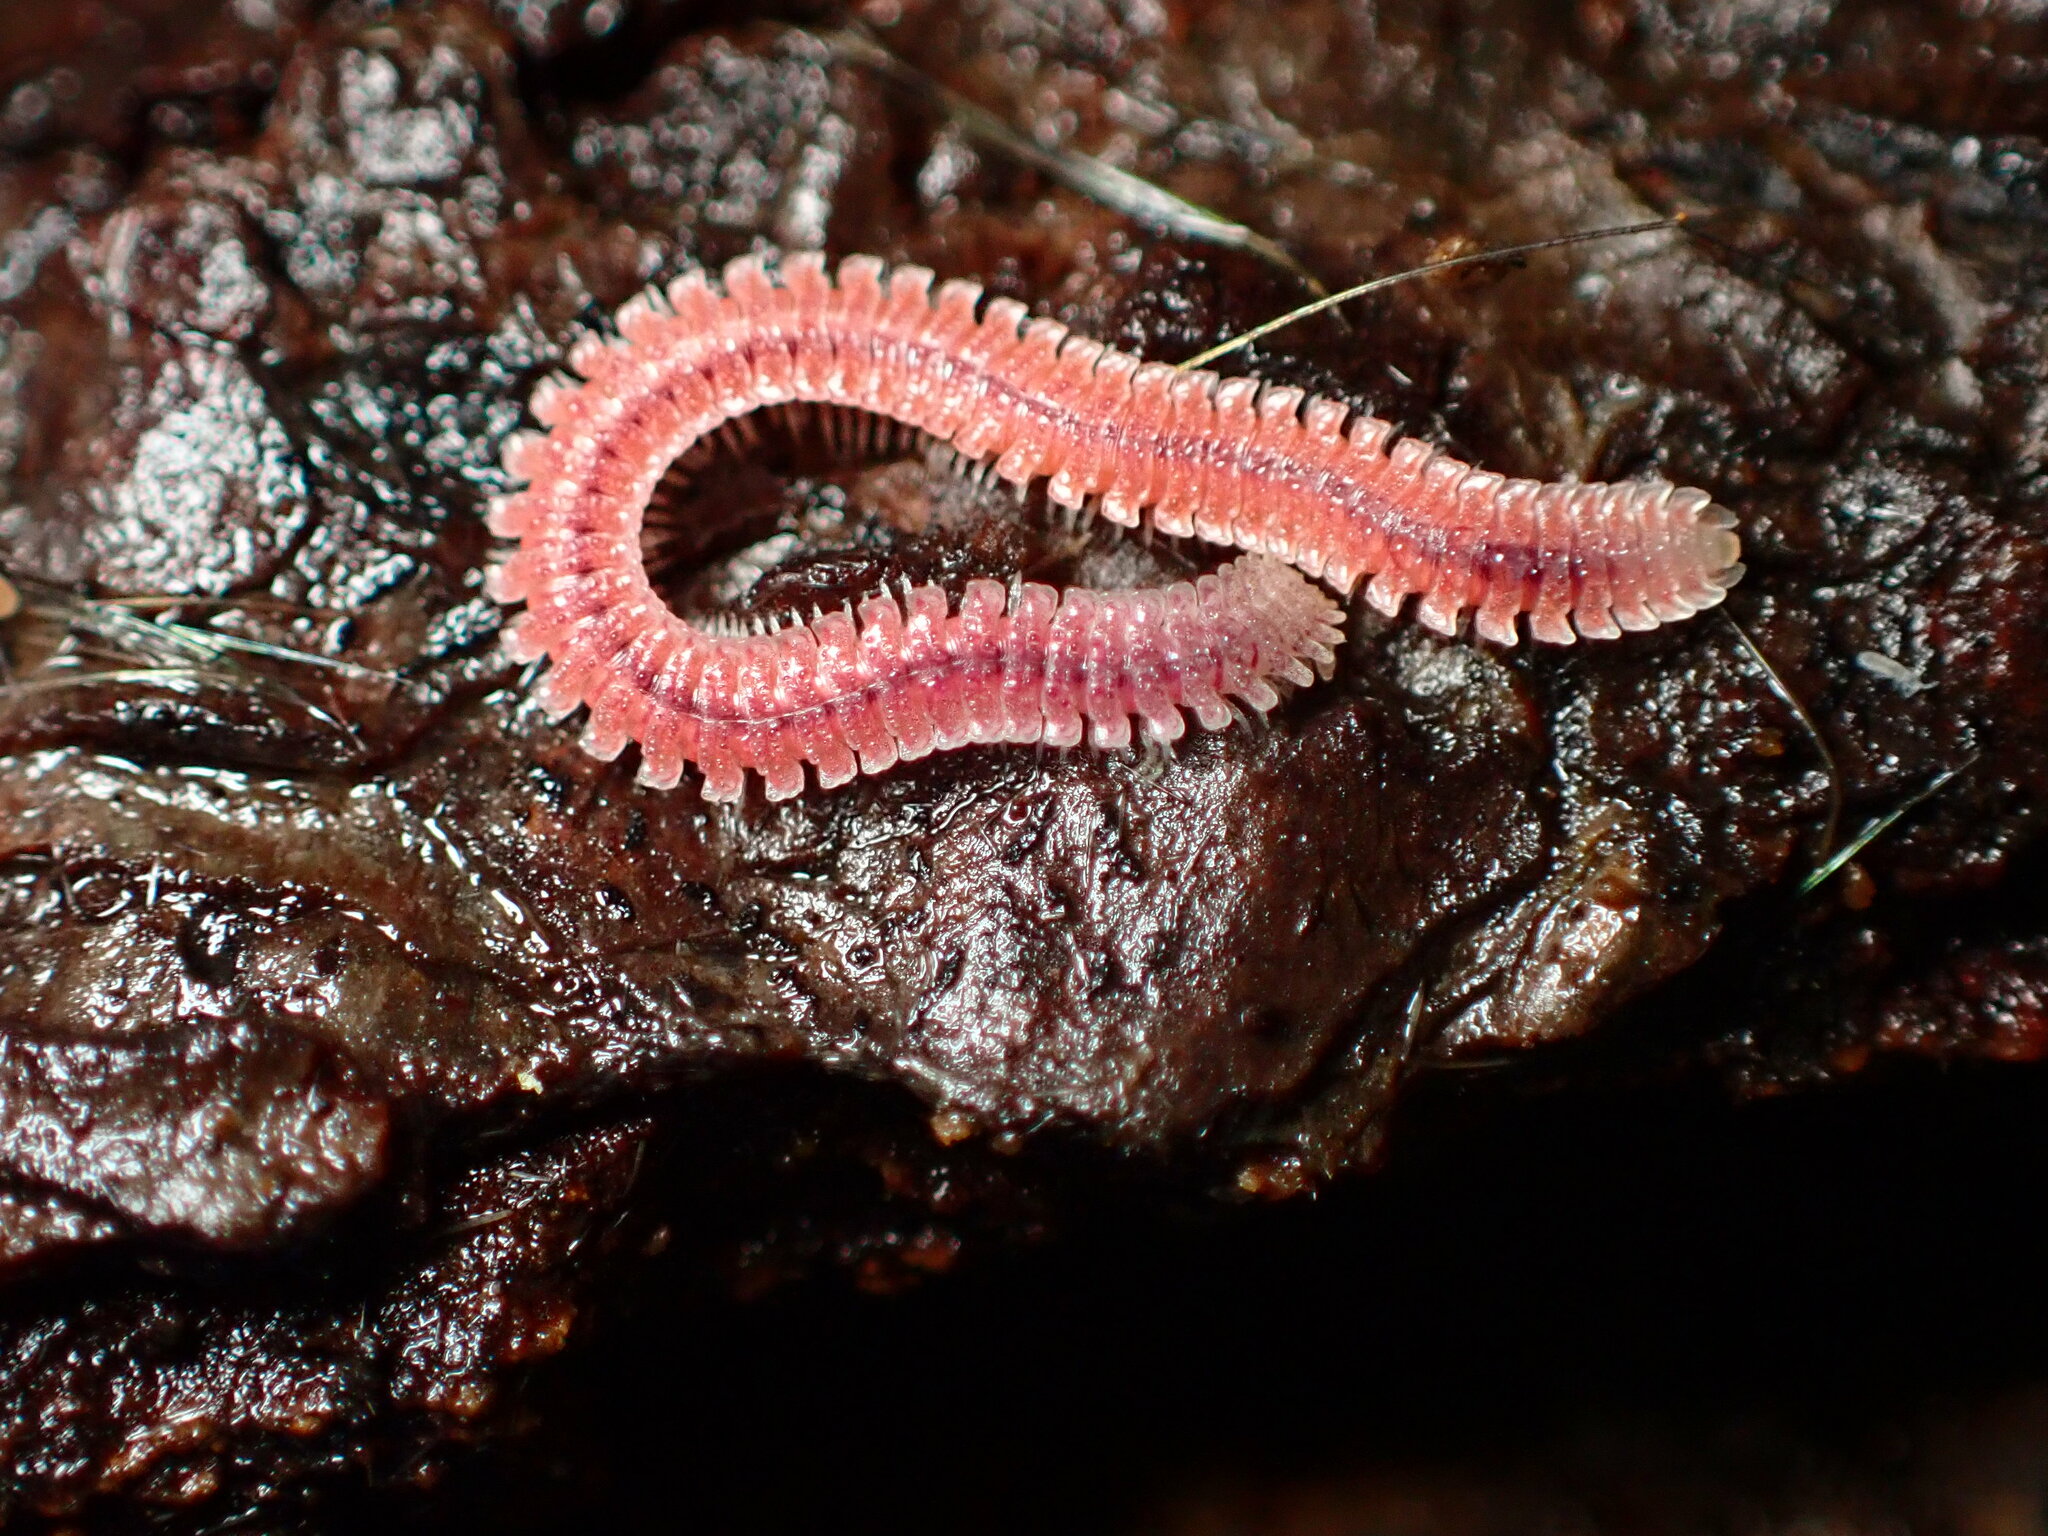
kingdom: Animalia
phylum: Arthropoda
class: Diplopoda
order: Platydesmida
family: Andrognathidae
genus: Gosodesmus
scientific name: Gosodesmus claremontus
